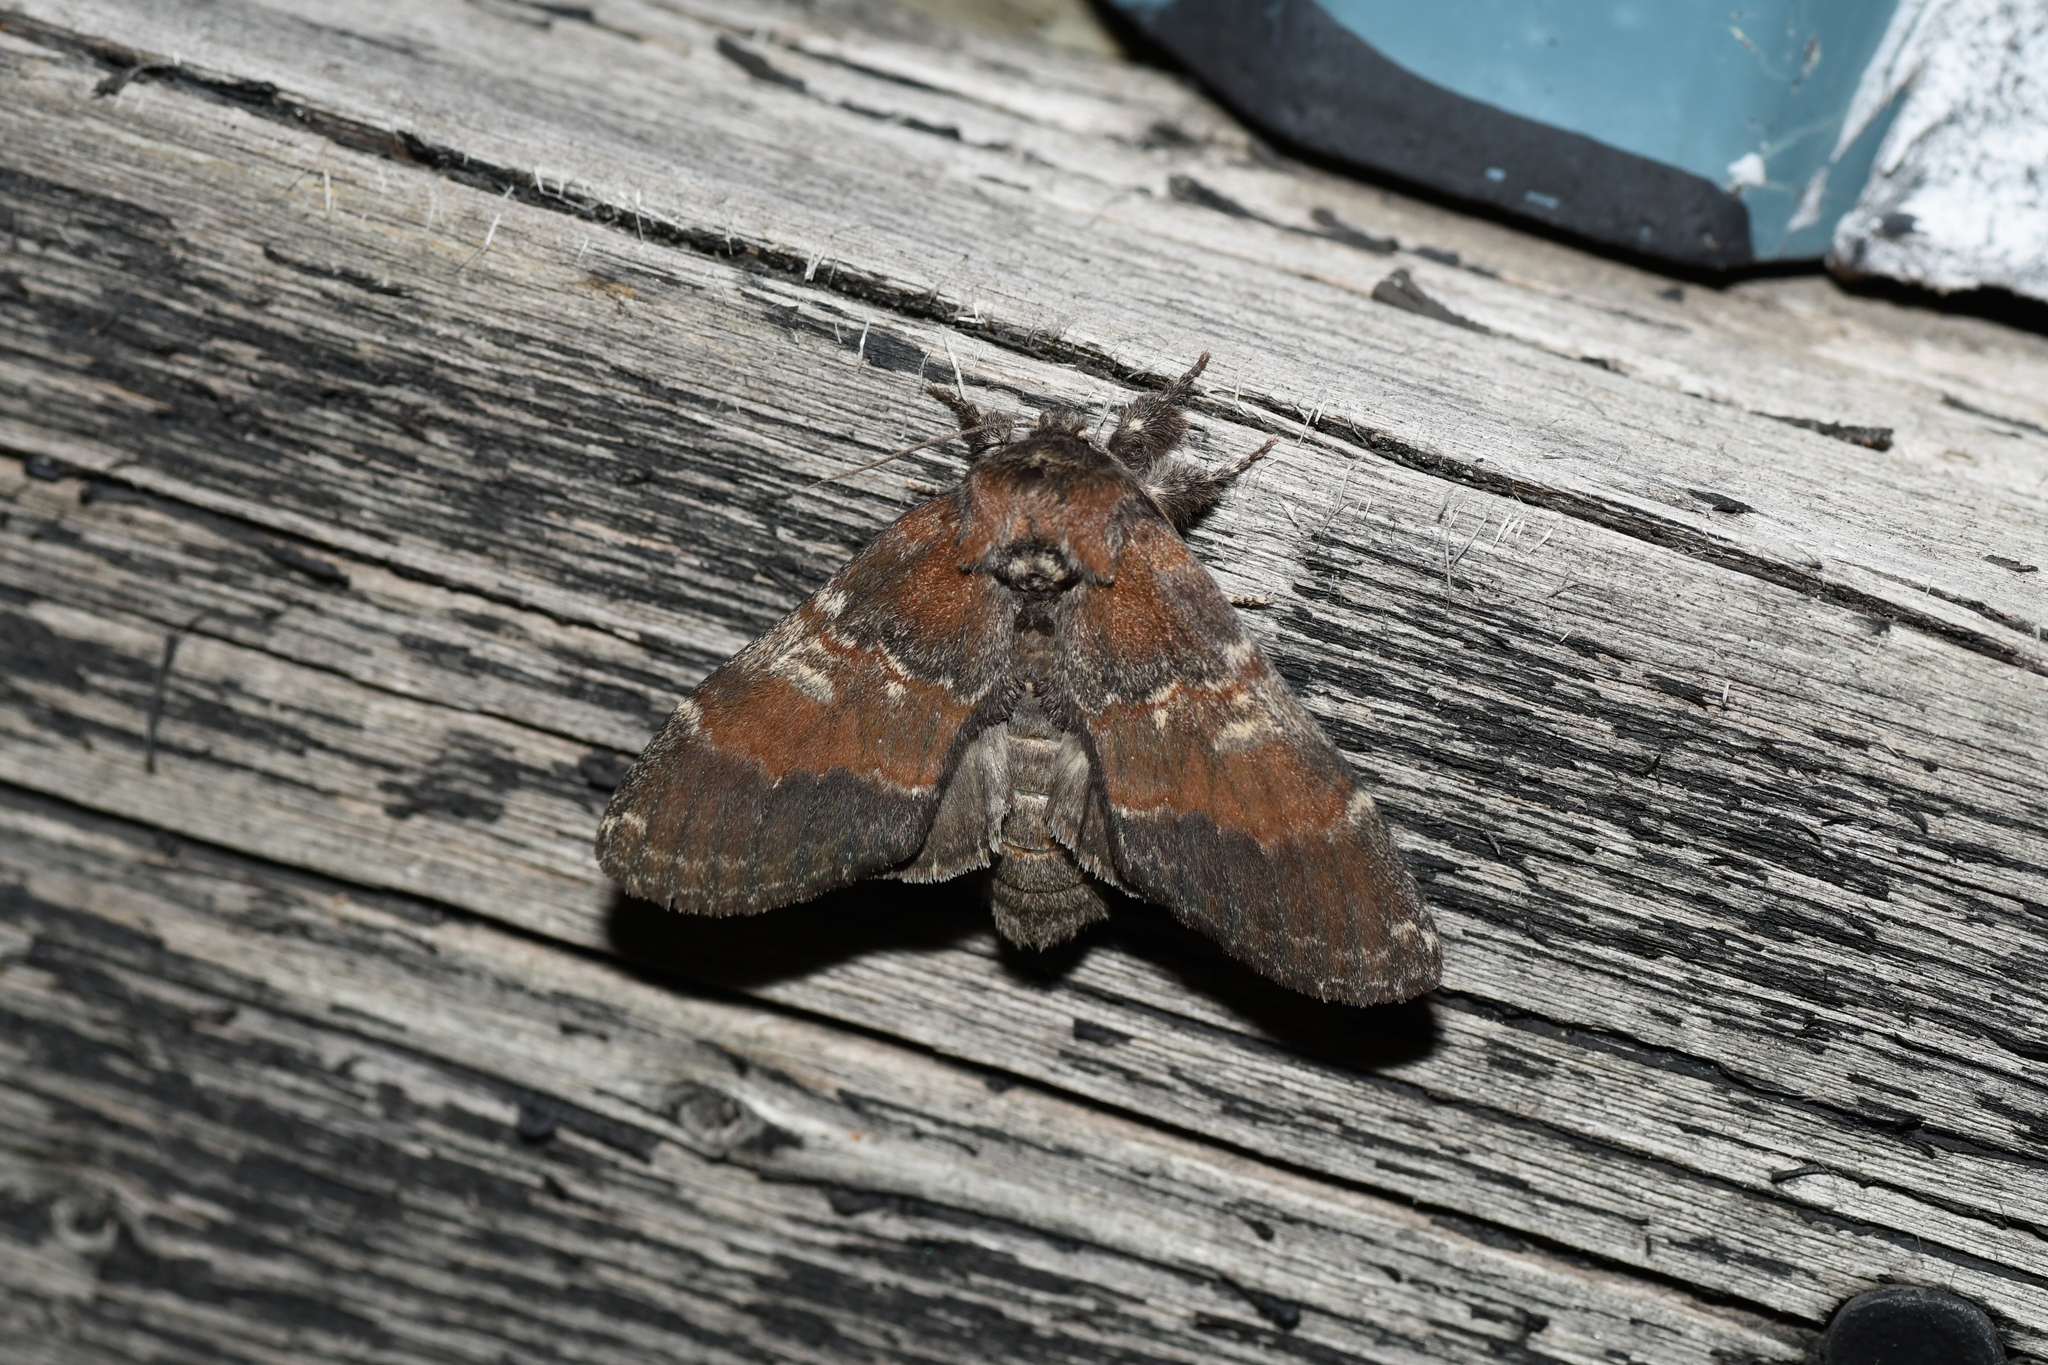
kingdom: Animalia
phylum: Arthropoda
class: Insecta
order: Lepidoptera
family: Notodontidae
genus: Peridea
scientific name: Peridea ferruginea
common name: Chocolate prominent
